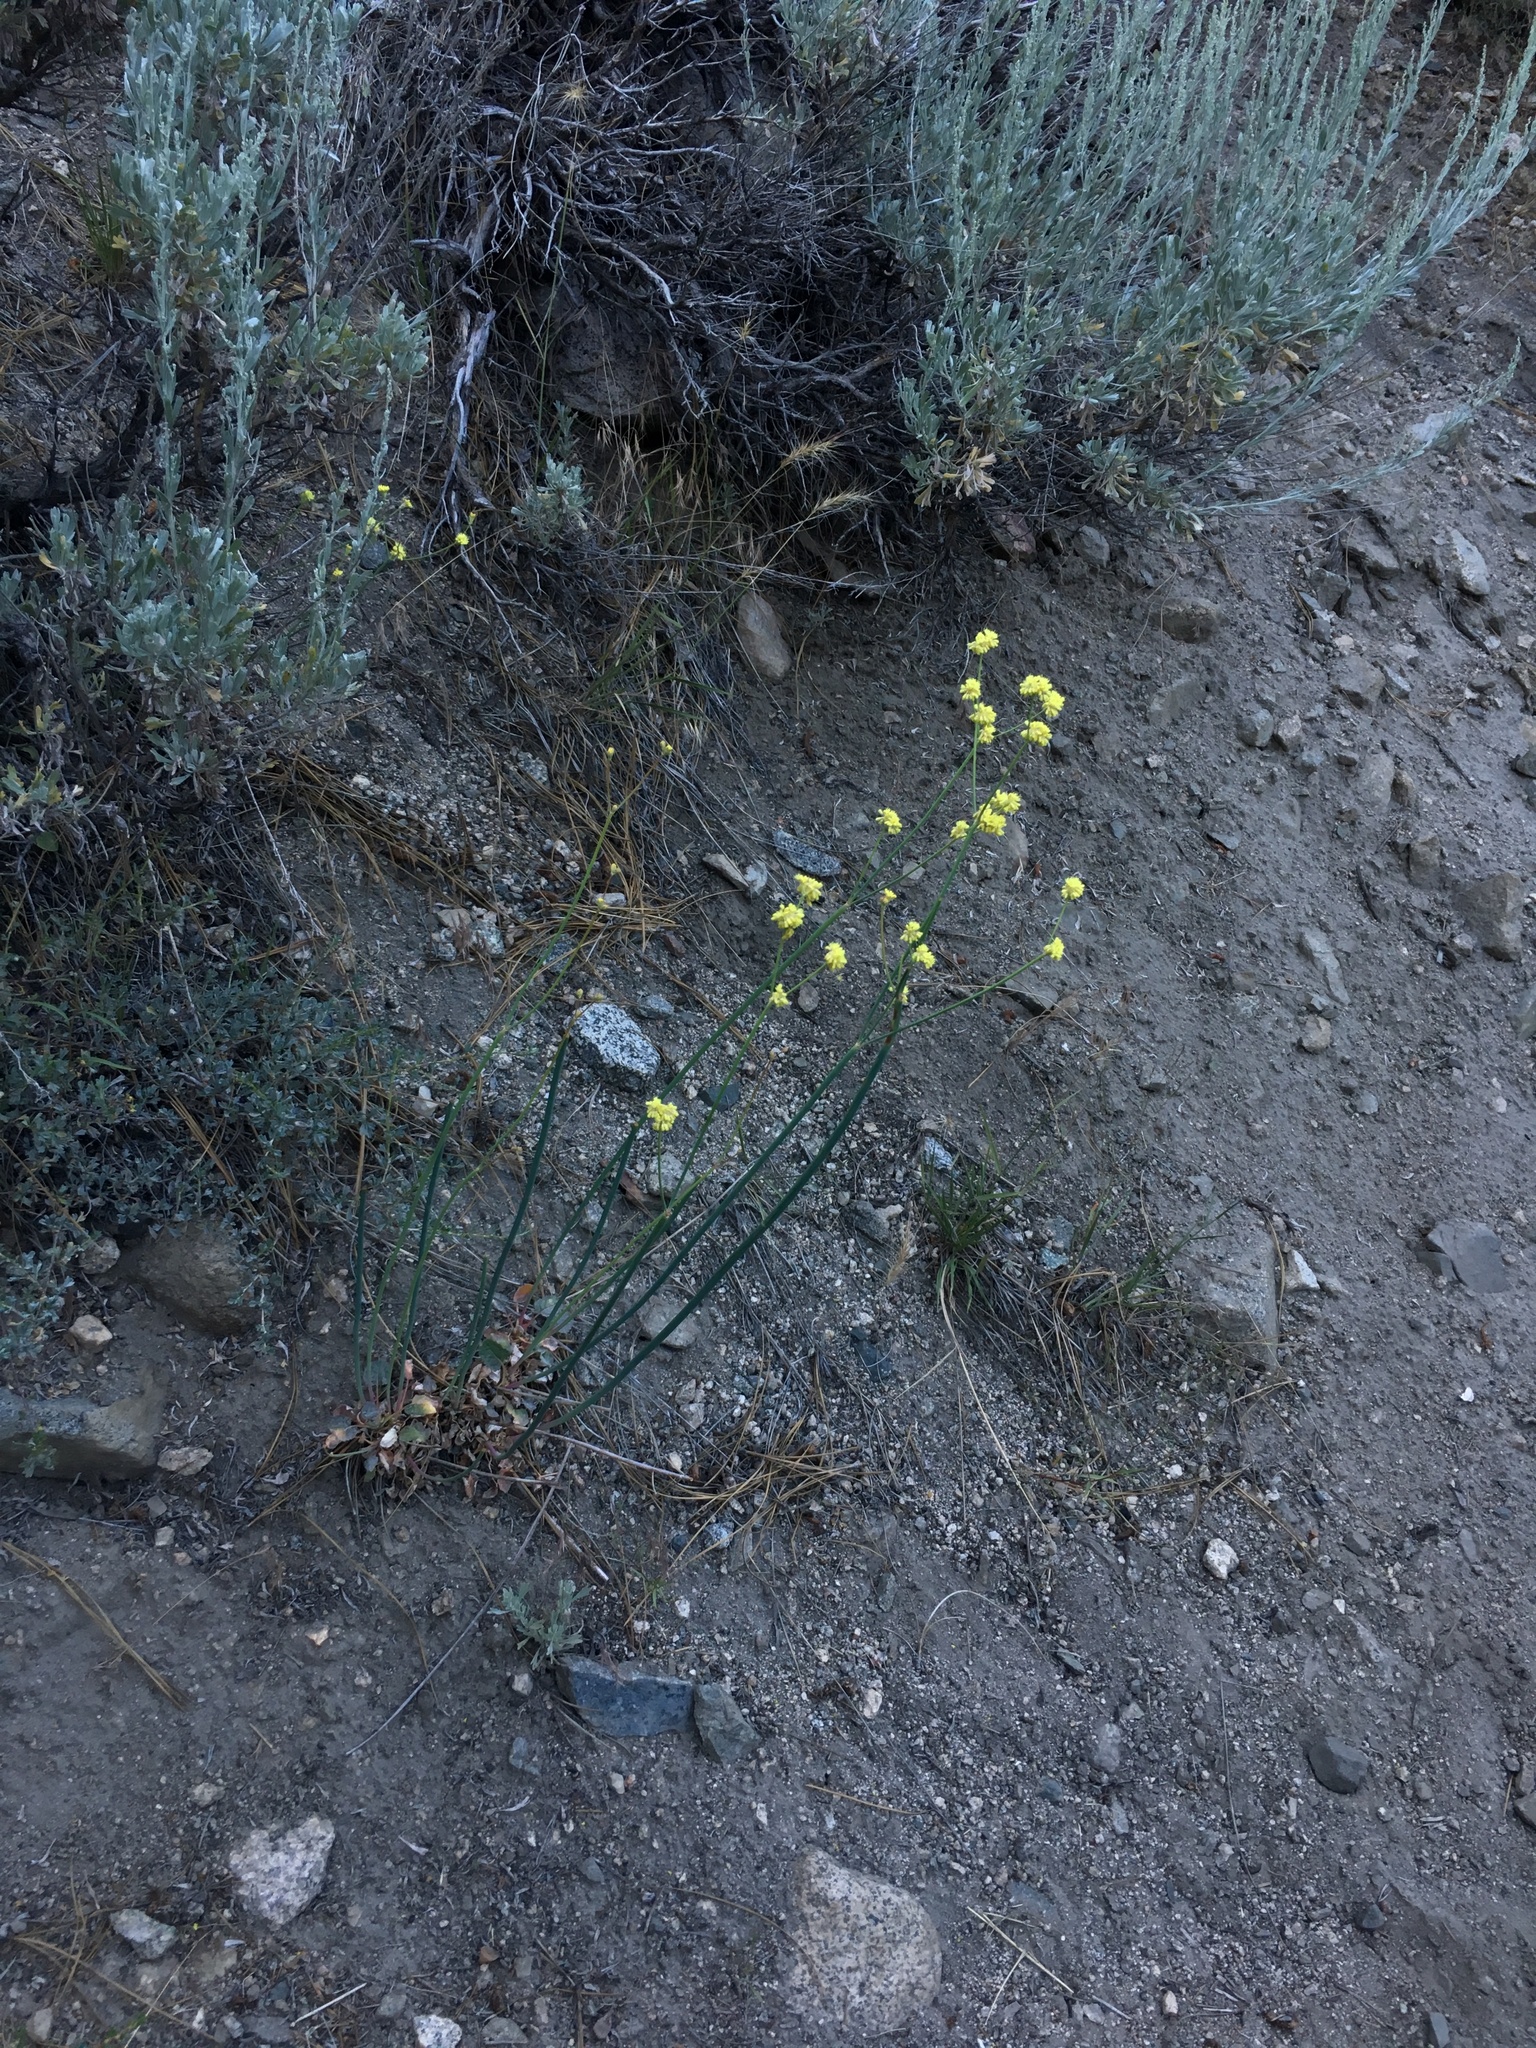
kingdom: Plantae
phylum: Tracheophyta
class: Magnoliopsida
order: Caryophyllales
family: Polygonaceae
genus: Eriogonum
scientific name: Eriogonum nudum
